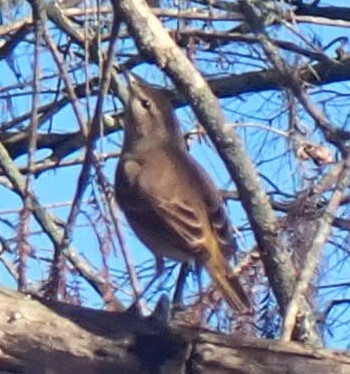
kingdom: Animalia
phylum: Chordata
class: Aves
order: Passeriformes
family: Parulidae
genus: Setophaga
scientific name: Setophaga palmarum
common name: Palm warbler
